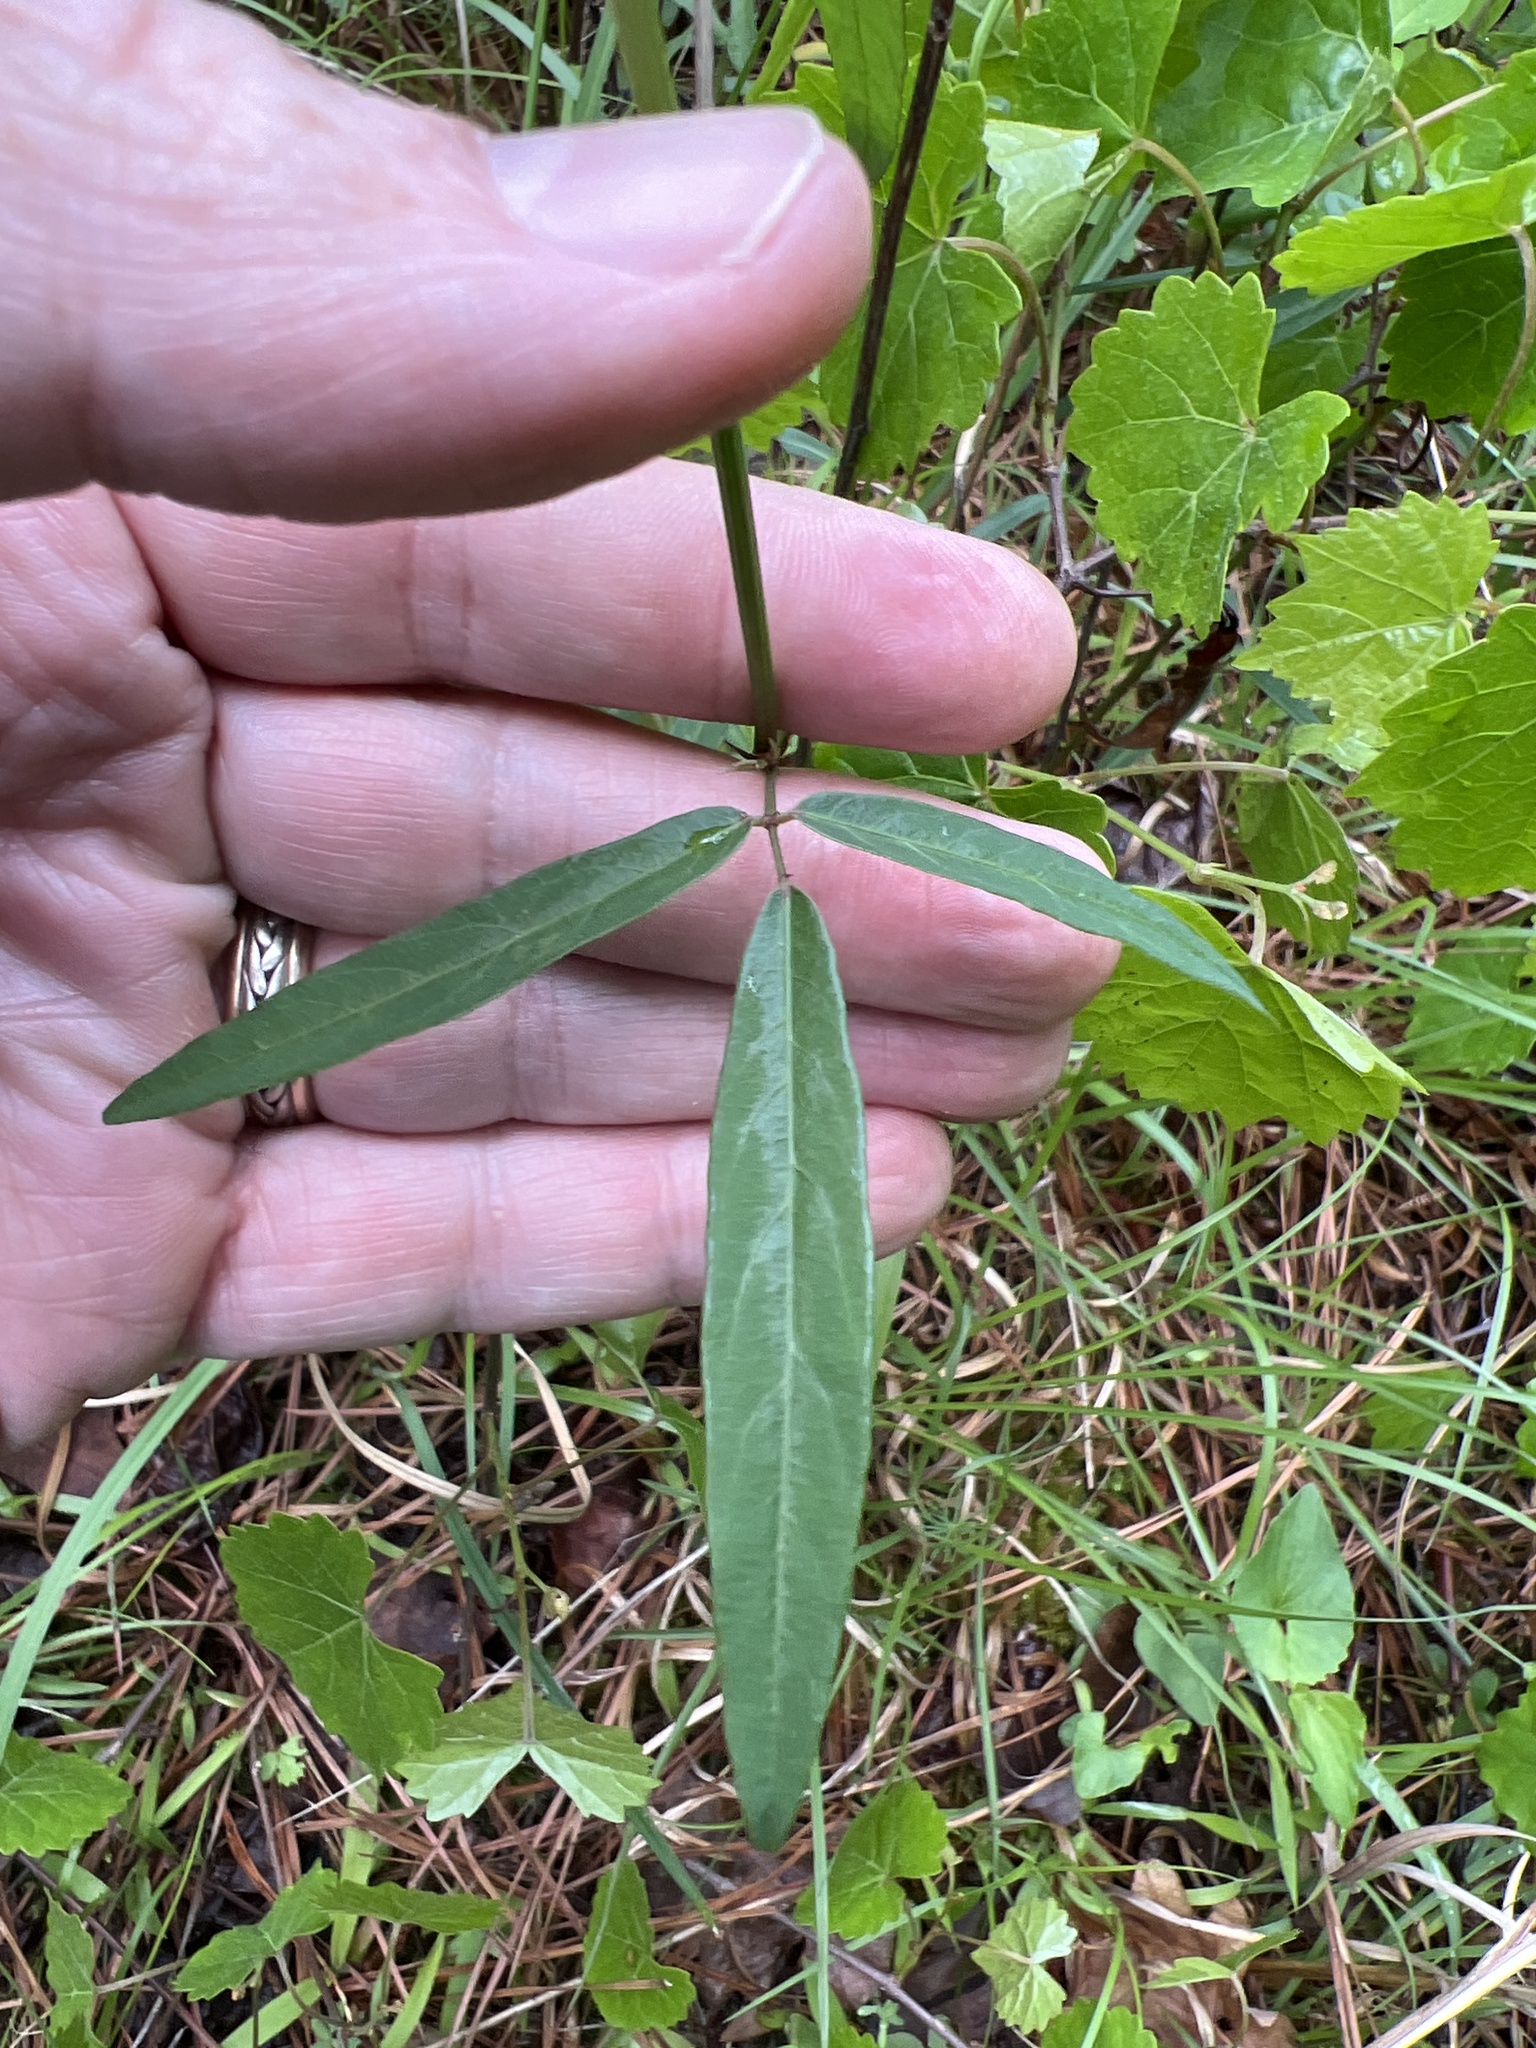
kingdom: Plantae
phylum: Tracheophyta
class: Magnoliopsida
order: Fabales
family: Fabaceae
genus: Desmodium
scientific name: Desmodium paniculatum
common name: Panicled tick-clover
